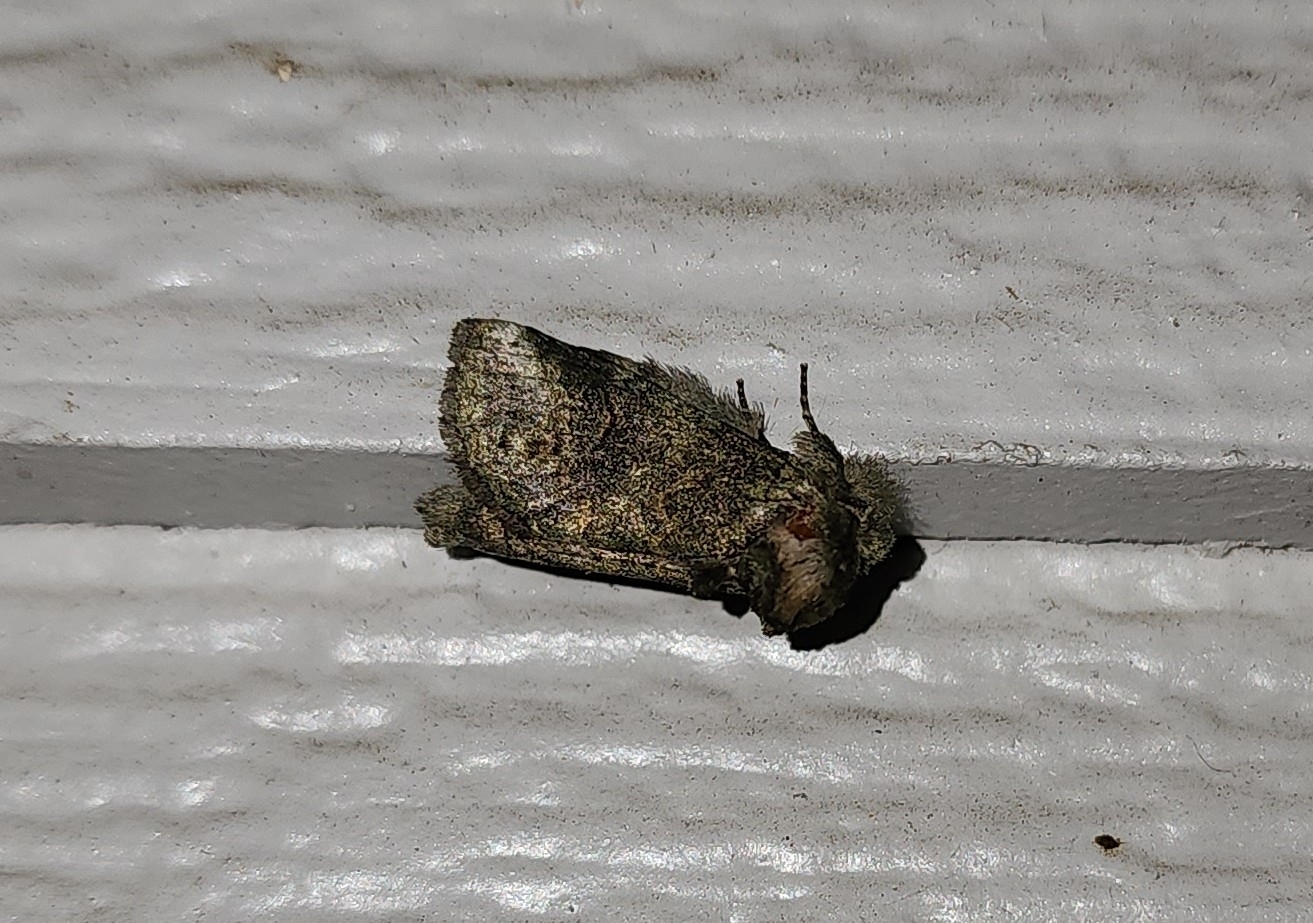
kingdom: Animalia
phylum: Arthropoda
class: Insecta
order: Lepidoptera
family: Notodontidae
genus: Rifargia
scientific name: Rifargia
